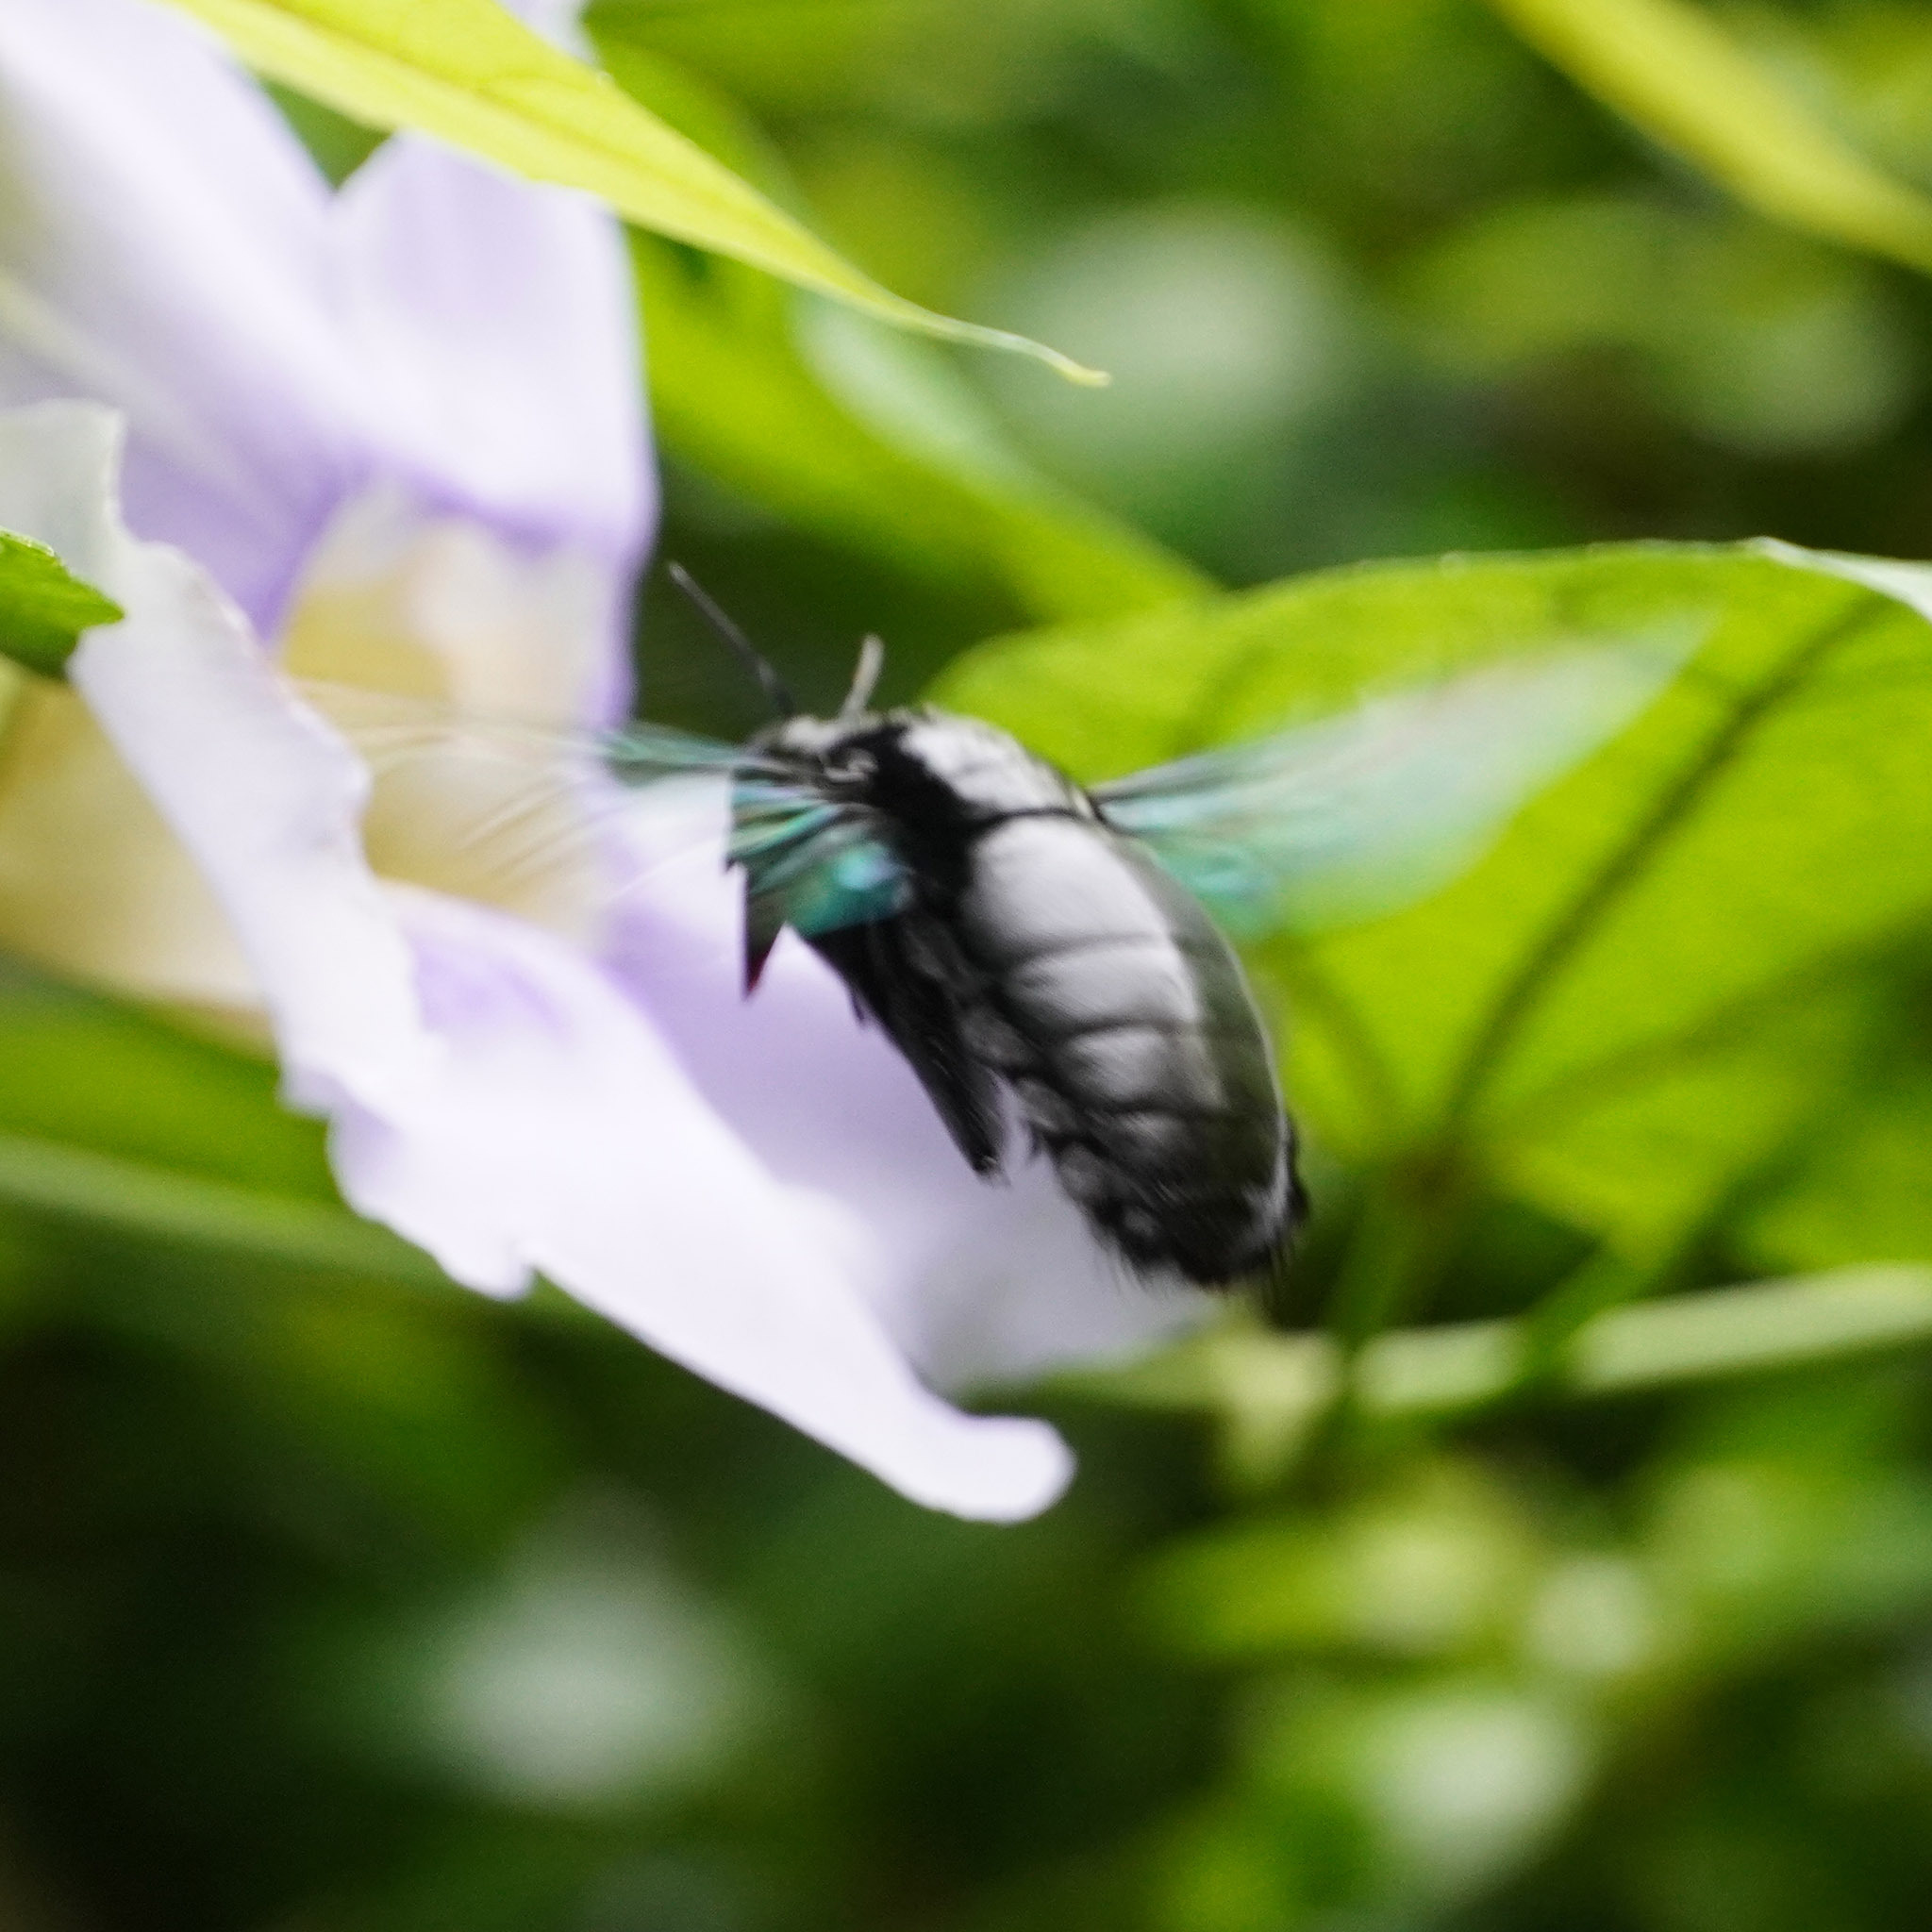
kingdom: Animalia
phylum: Arthropoda
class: Insecta
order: Hymenoptera
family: Apidae
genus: Xylocopa
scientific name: Xylocopa latipes
